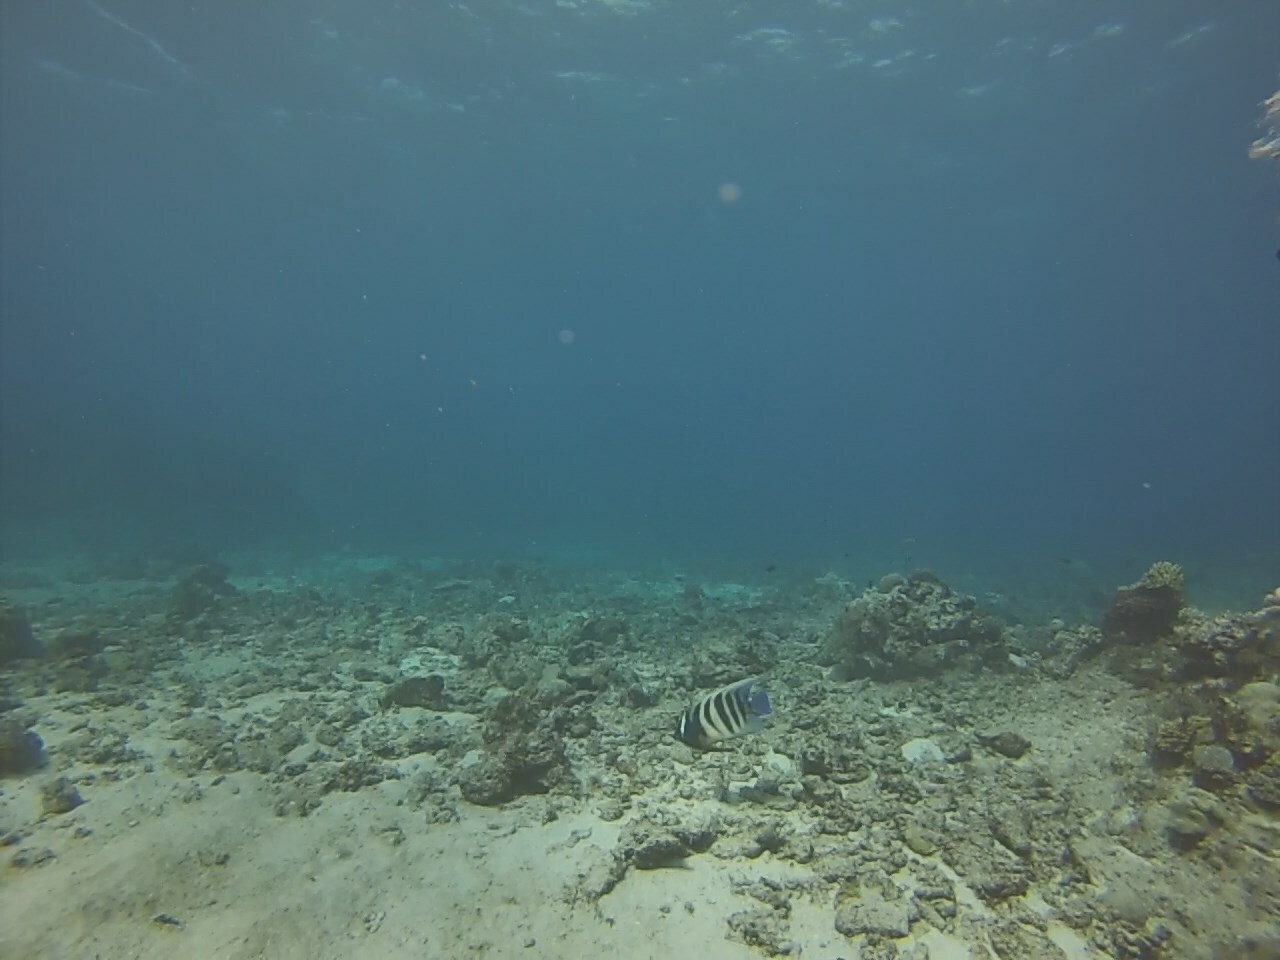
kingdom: Animalia
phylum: Chordata
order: Perciformes
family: Pomacanthidae
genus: Pomacanthus
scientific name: Pomacanthus sexstriatus
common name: Six-banded angelfish
